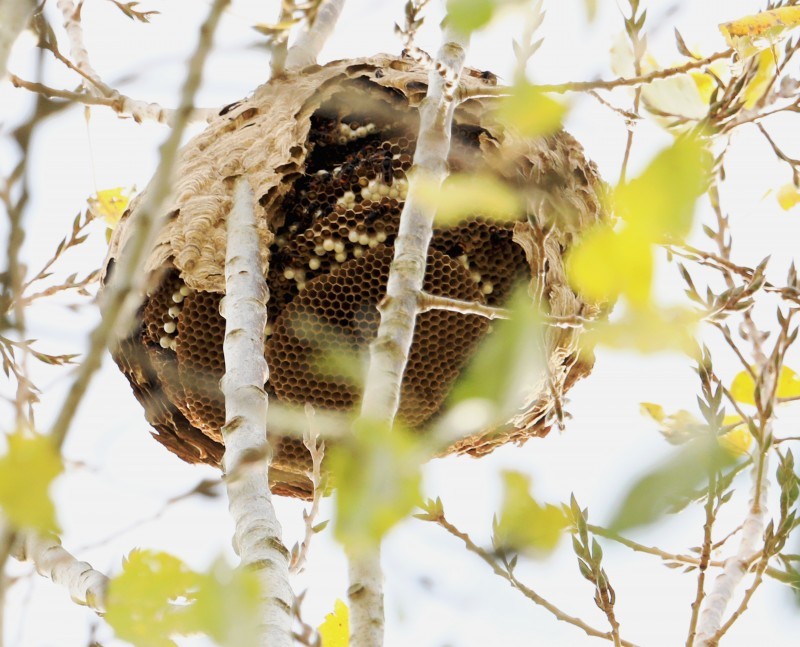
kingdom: Animalia
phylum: Arthropoda
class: Insecta
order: Hymenoptera
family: Vespidae
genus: Vespa
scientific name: Vespa velutina
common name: Asian hornet
